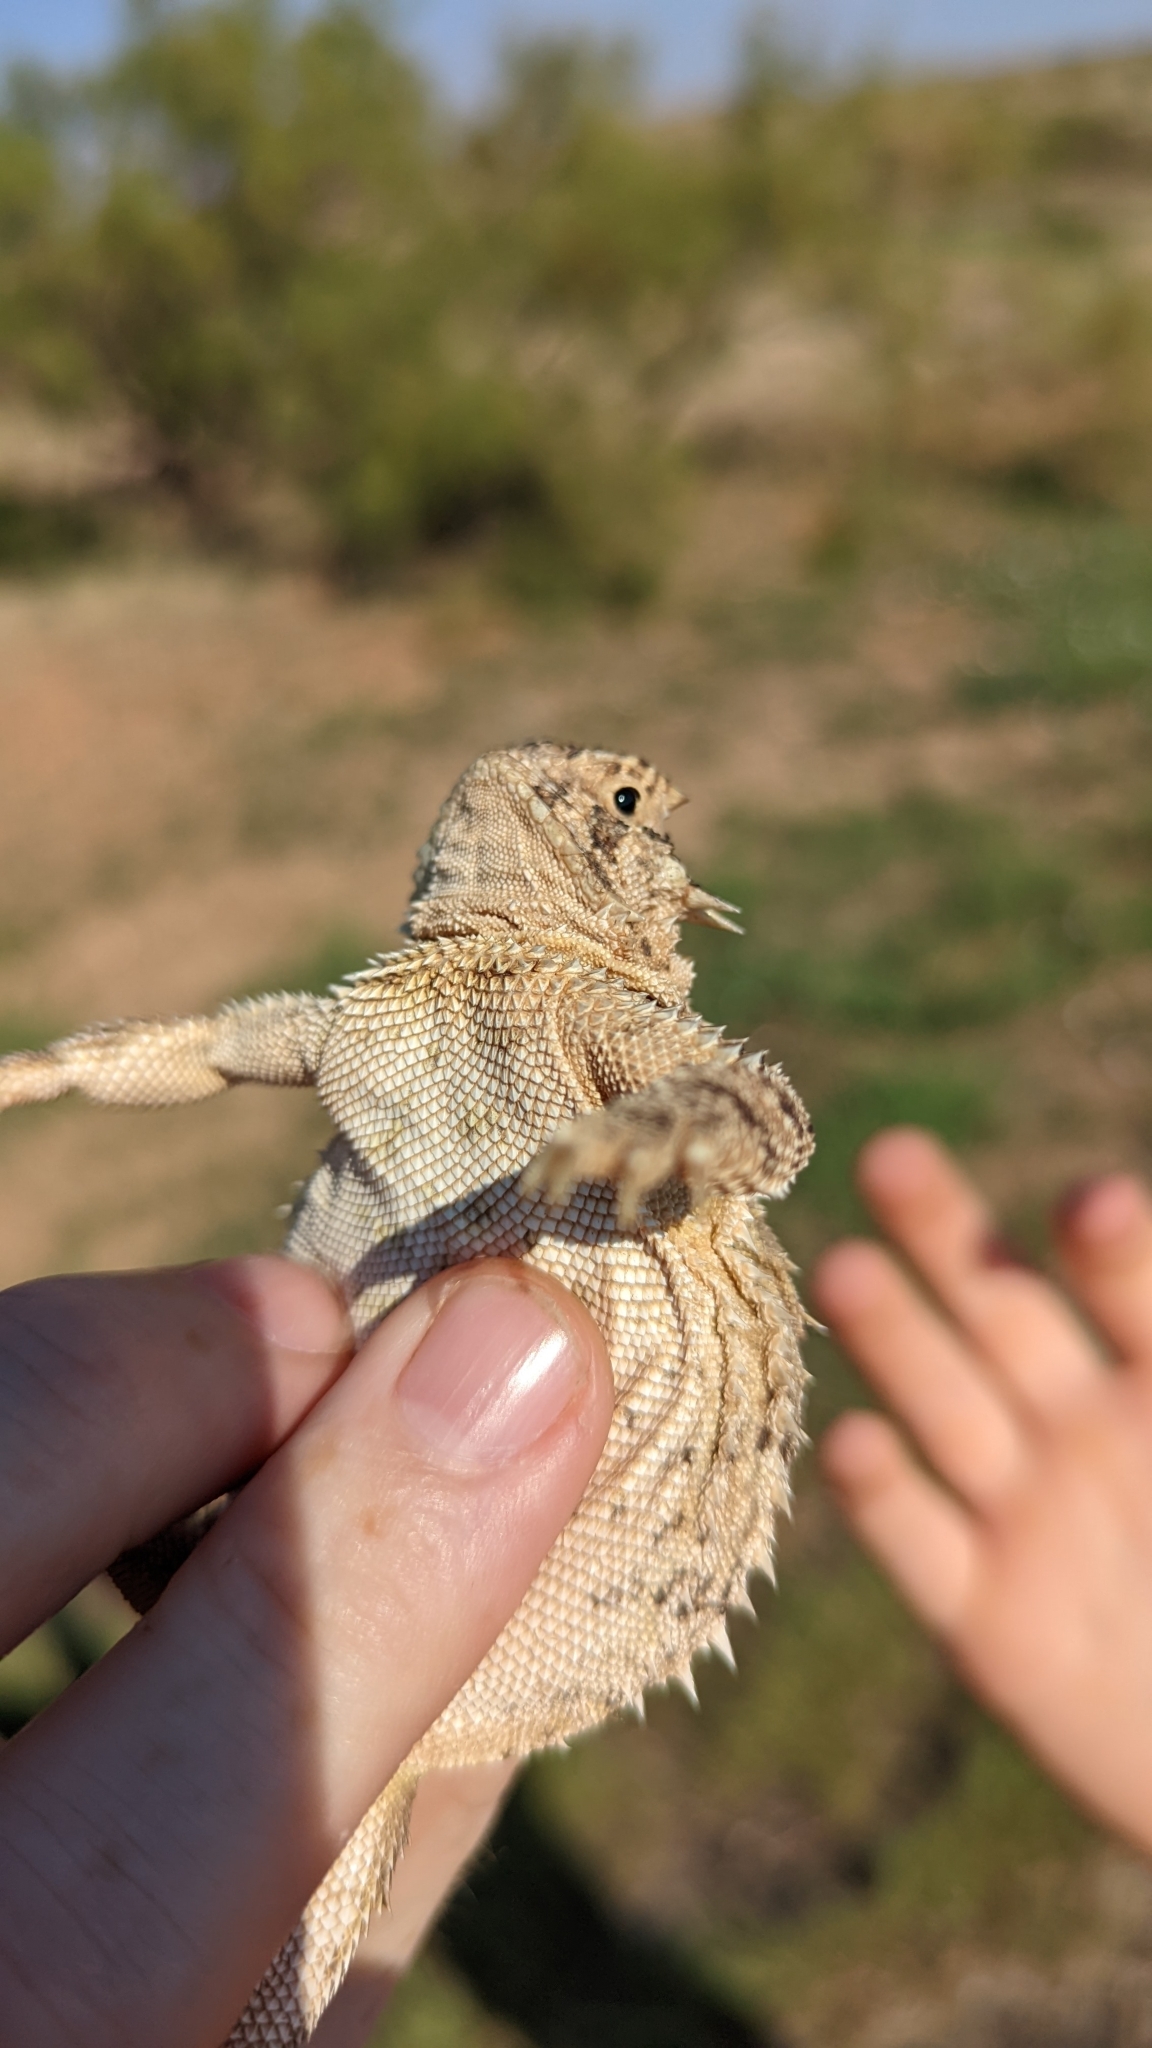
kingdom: Animalia
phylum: Chordata
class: Squamata
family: Phrynosomatidae
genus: Phrynosoma
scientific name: Phrynosoma cornutum
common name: Texas horned lizard
